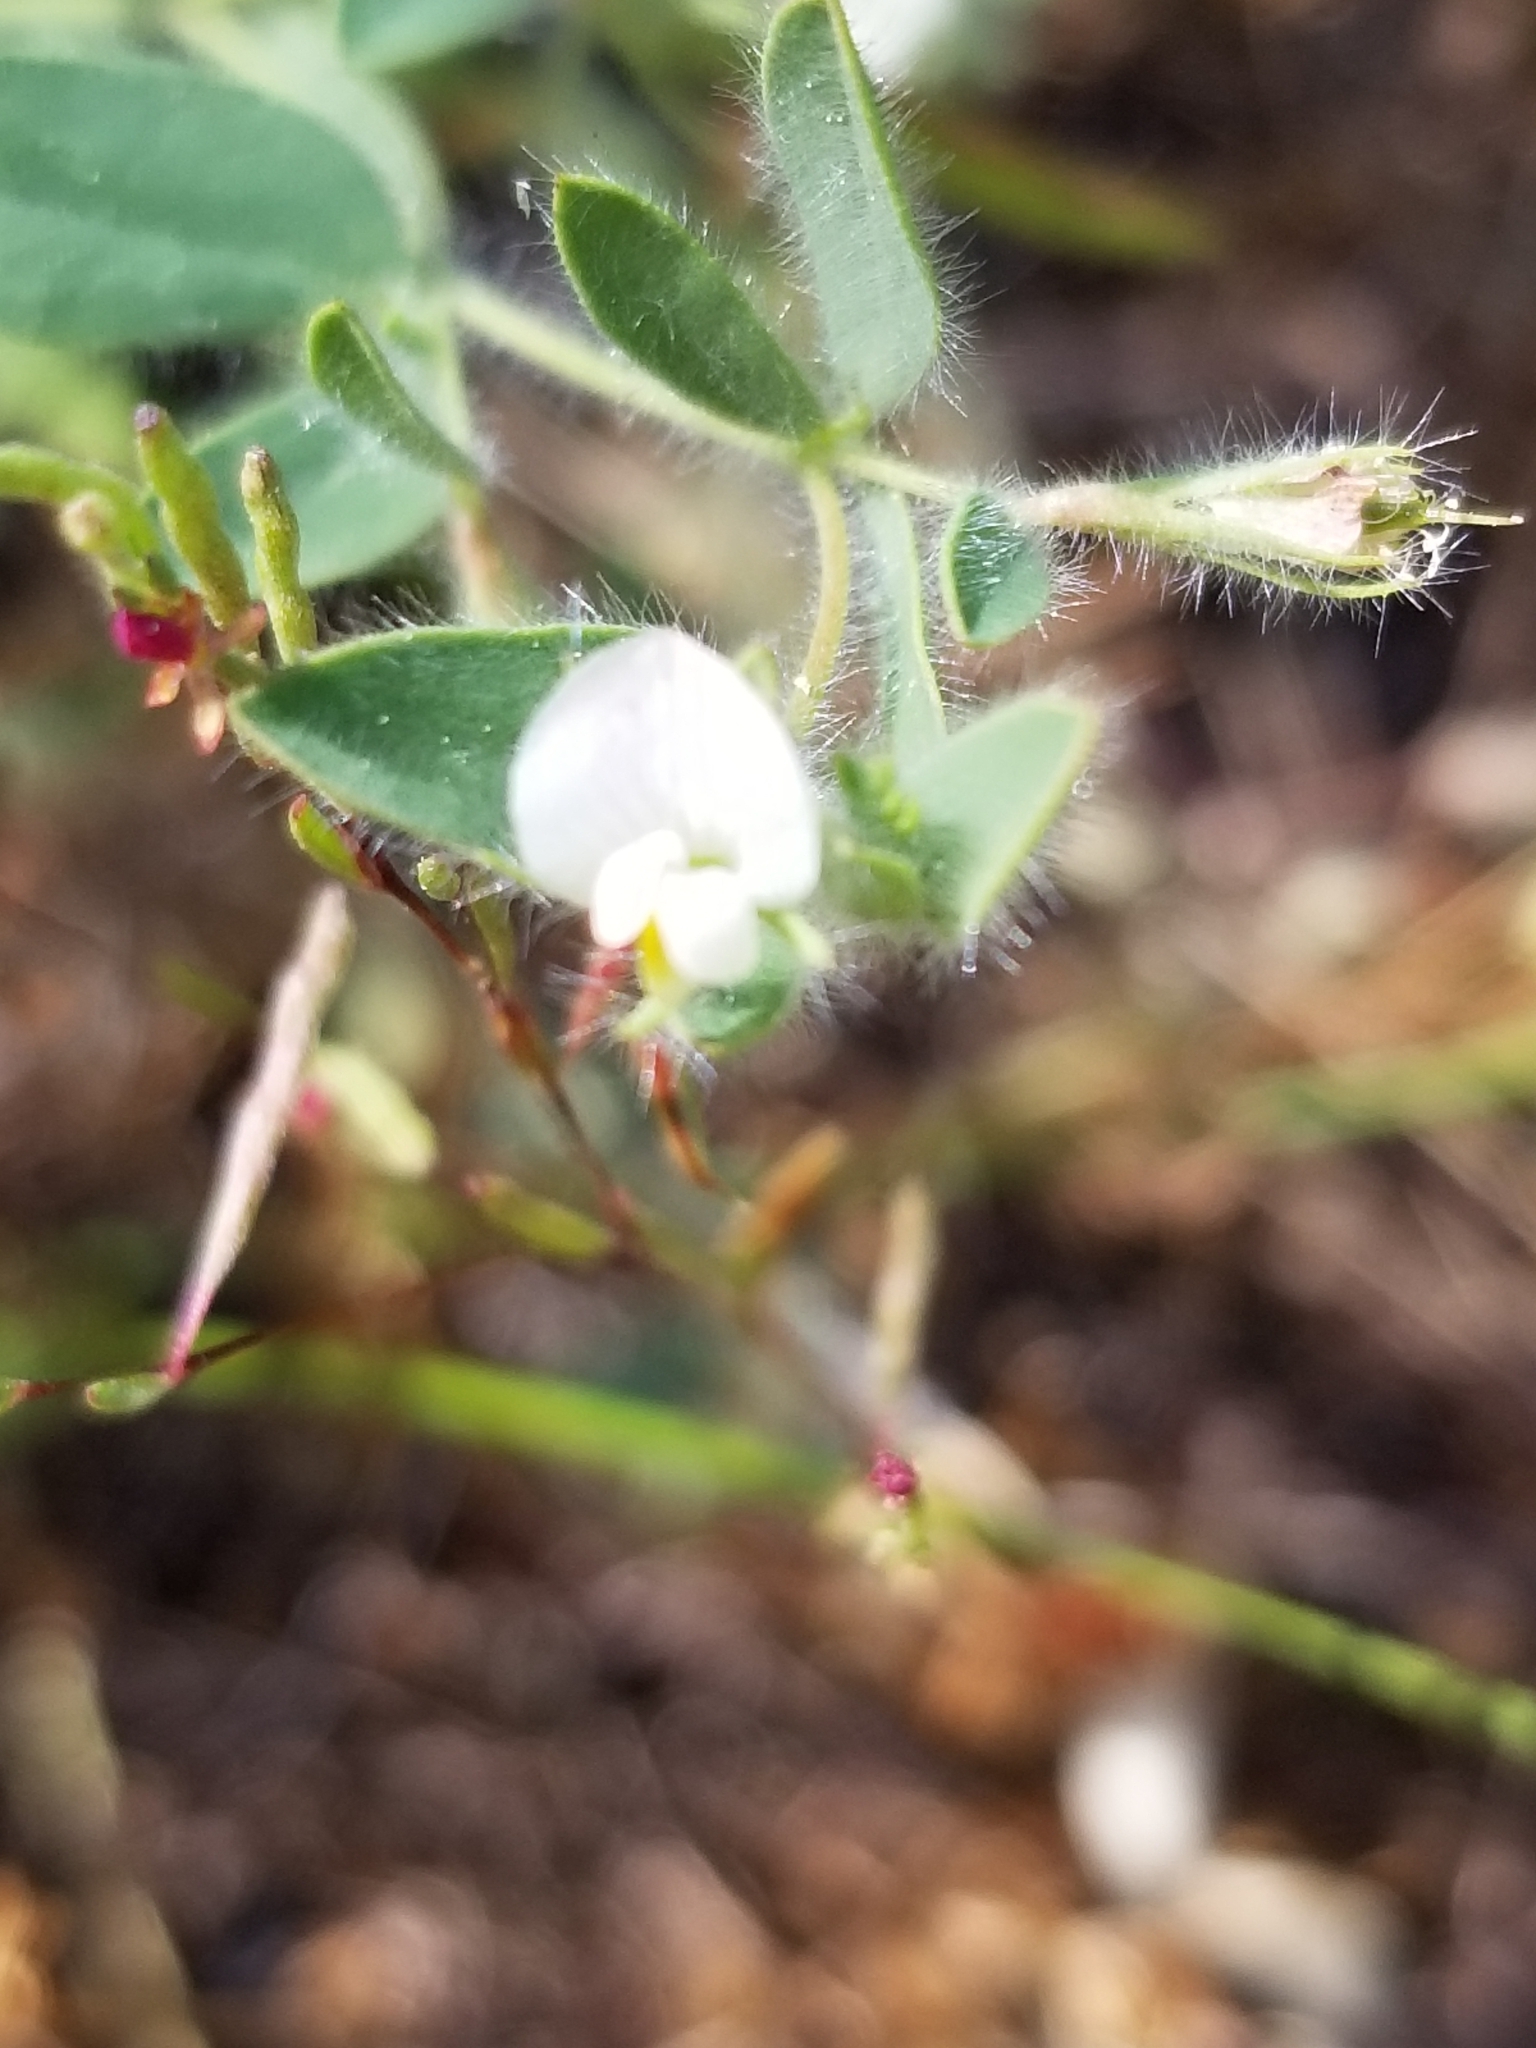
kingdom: Plantae
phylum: Tracheophyta
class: Magnoliopsida
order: Fabales
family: Fabaceae
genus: Acmispon
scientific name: Acmispon americanus
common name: American bird's-foot trefoil
